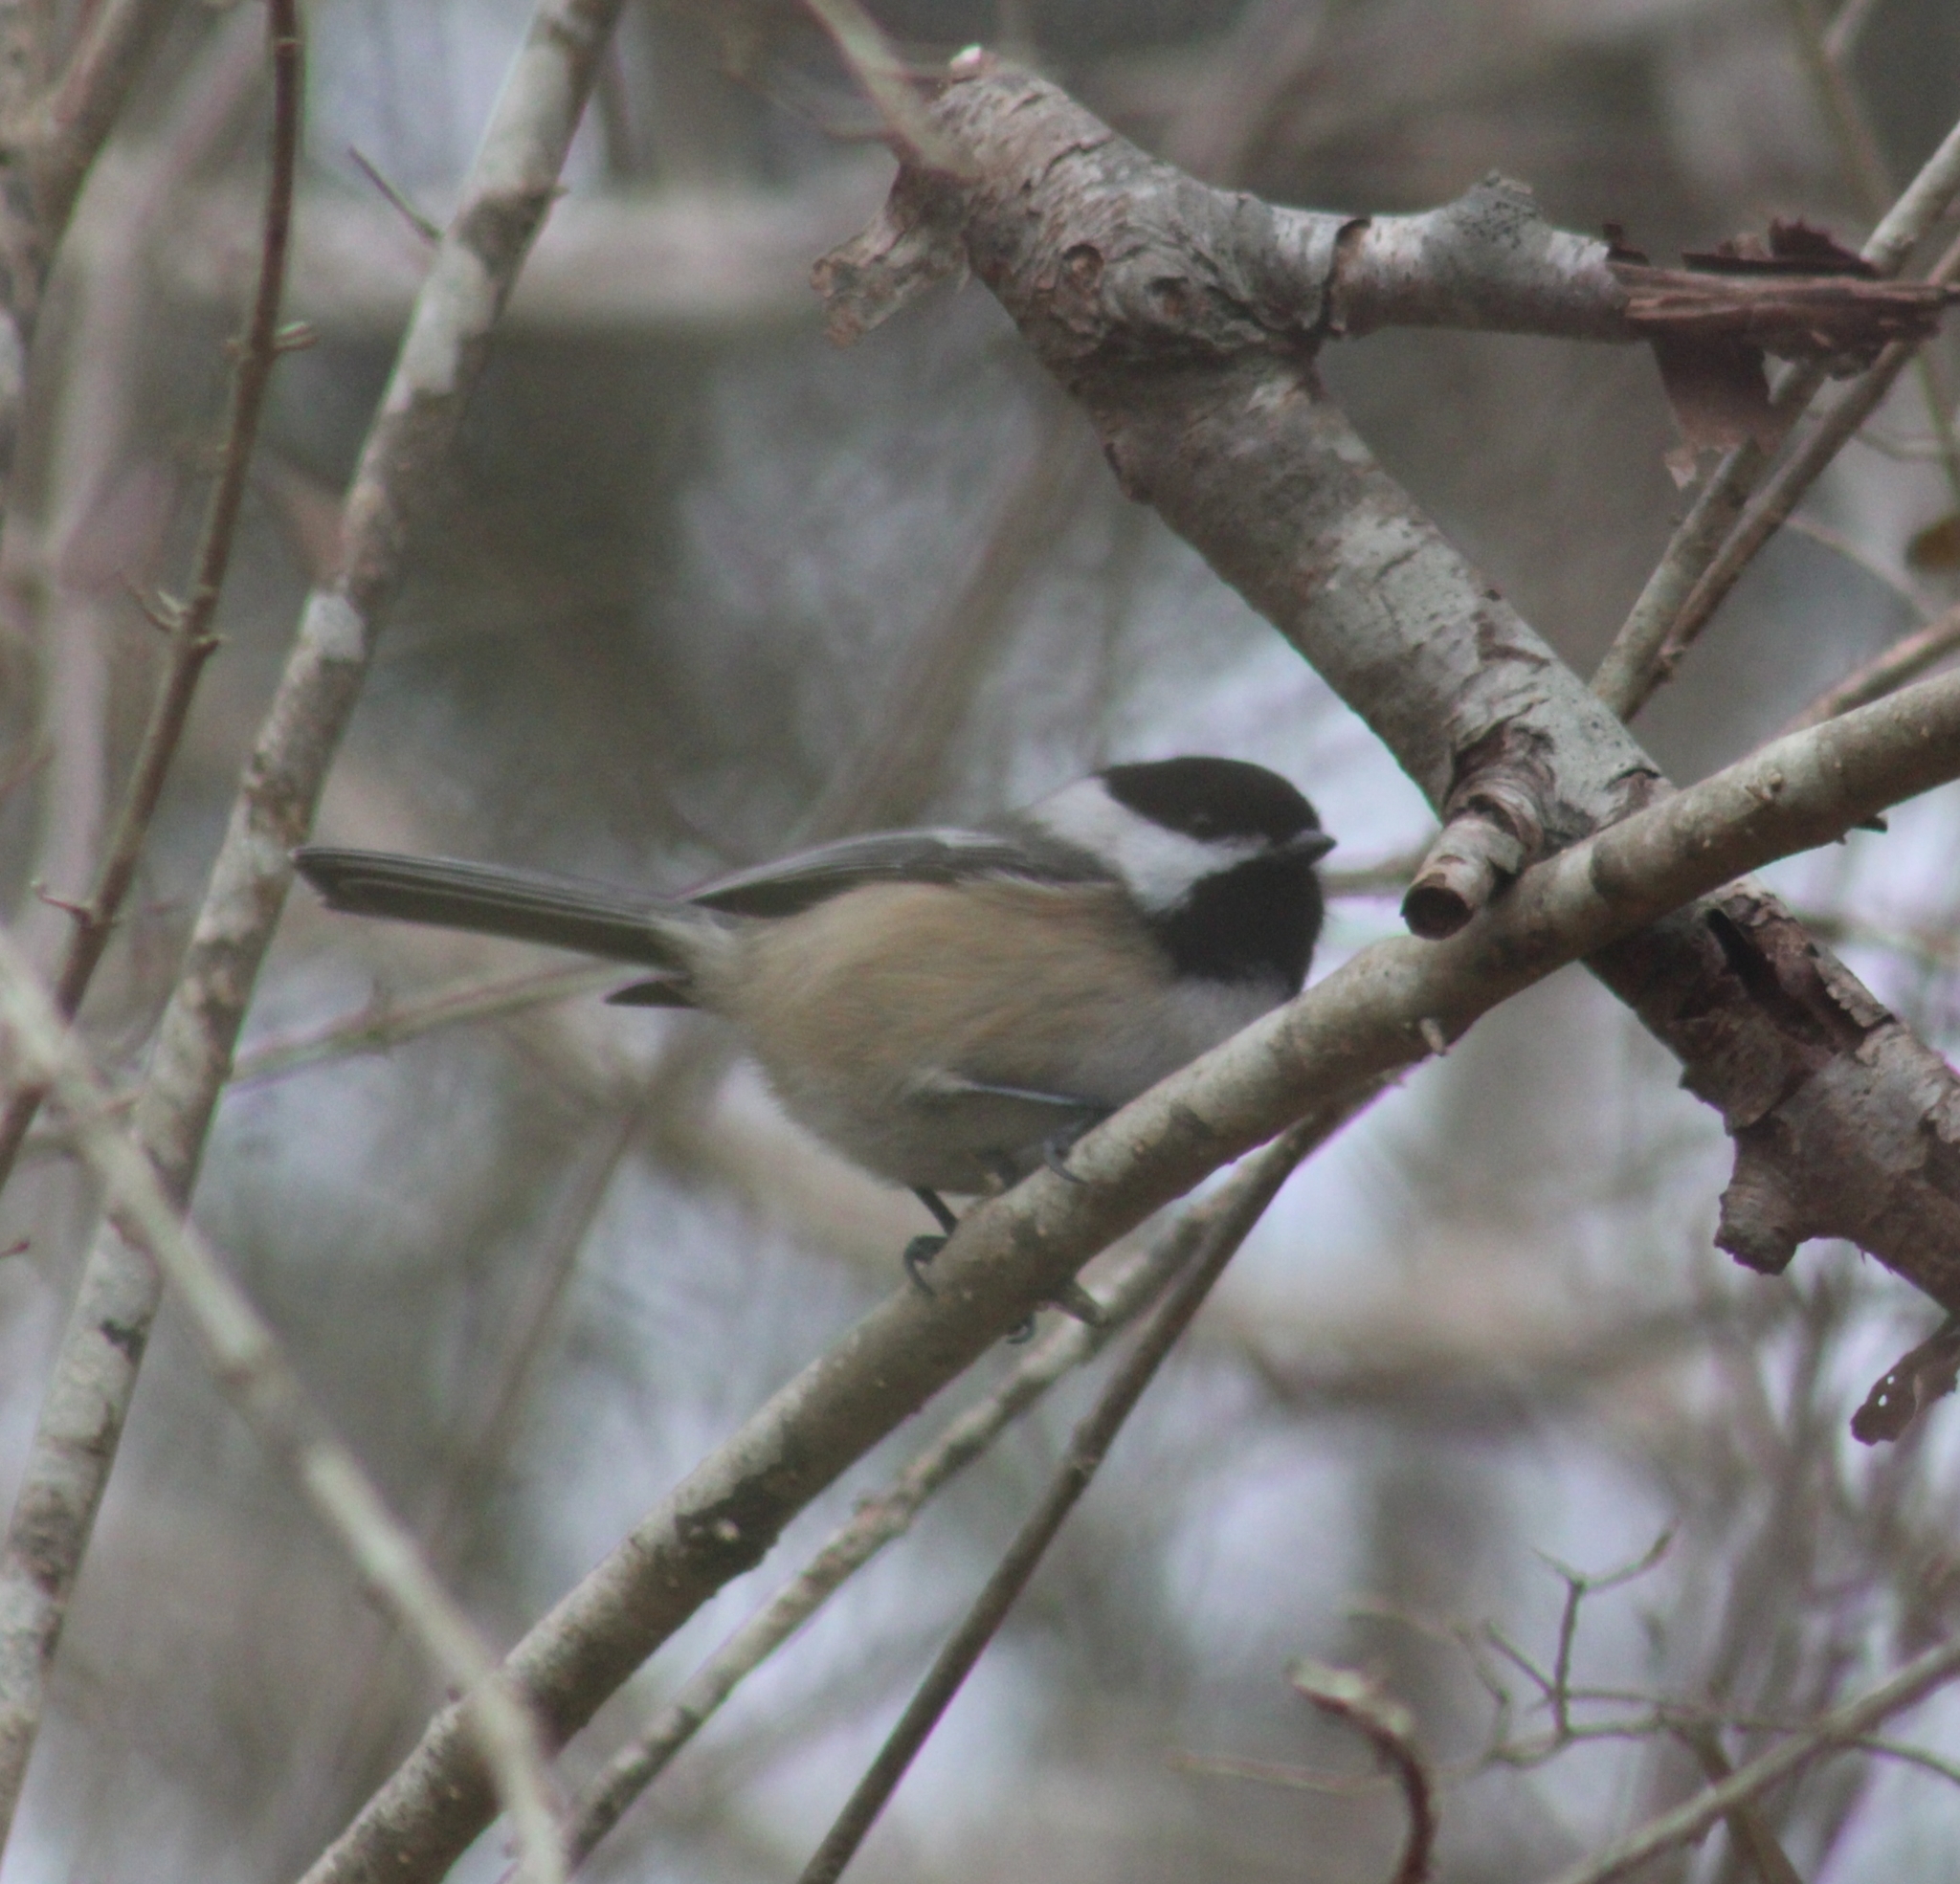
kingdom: Animalia
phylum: Chordata
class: Aves
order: Passeriformes
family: Paridae
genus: Poecile
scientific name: Poecile atricapillus
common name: Black-capped chickadee
